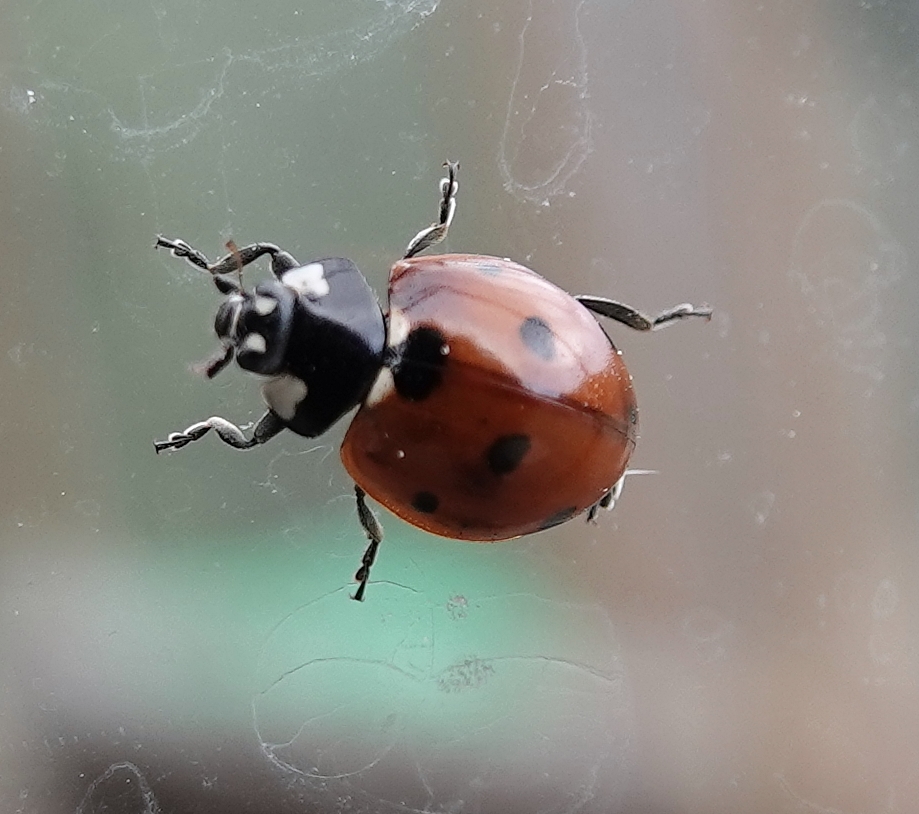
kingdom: Animalia
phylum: Arthropoda
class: Insecta
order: Coleoptera
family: Coccinellidae
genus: Coccinella
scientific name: Coccinella septempunctata
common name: Sevenspotted lady beetle
